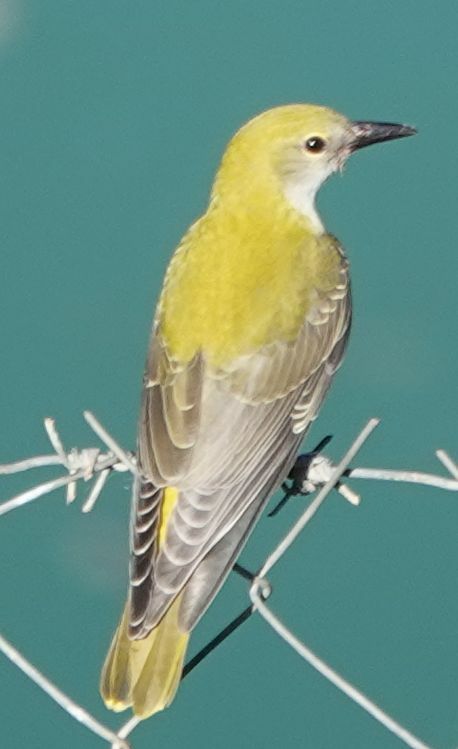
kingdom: Animalia
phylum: Chordata
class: Aves
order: Passeriformes
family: Oriolidae
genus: Oriolus
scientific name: Oriolus oriolus
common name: Eurasian golden oriole
